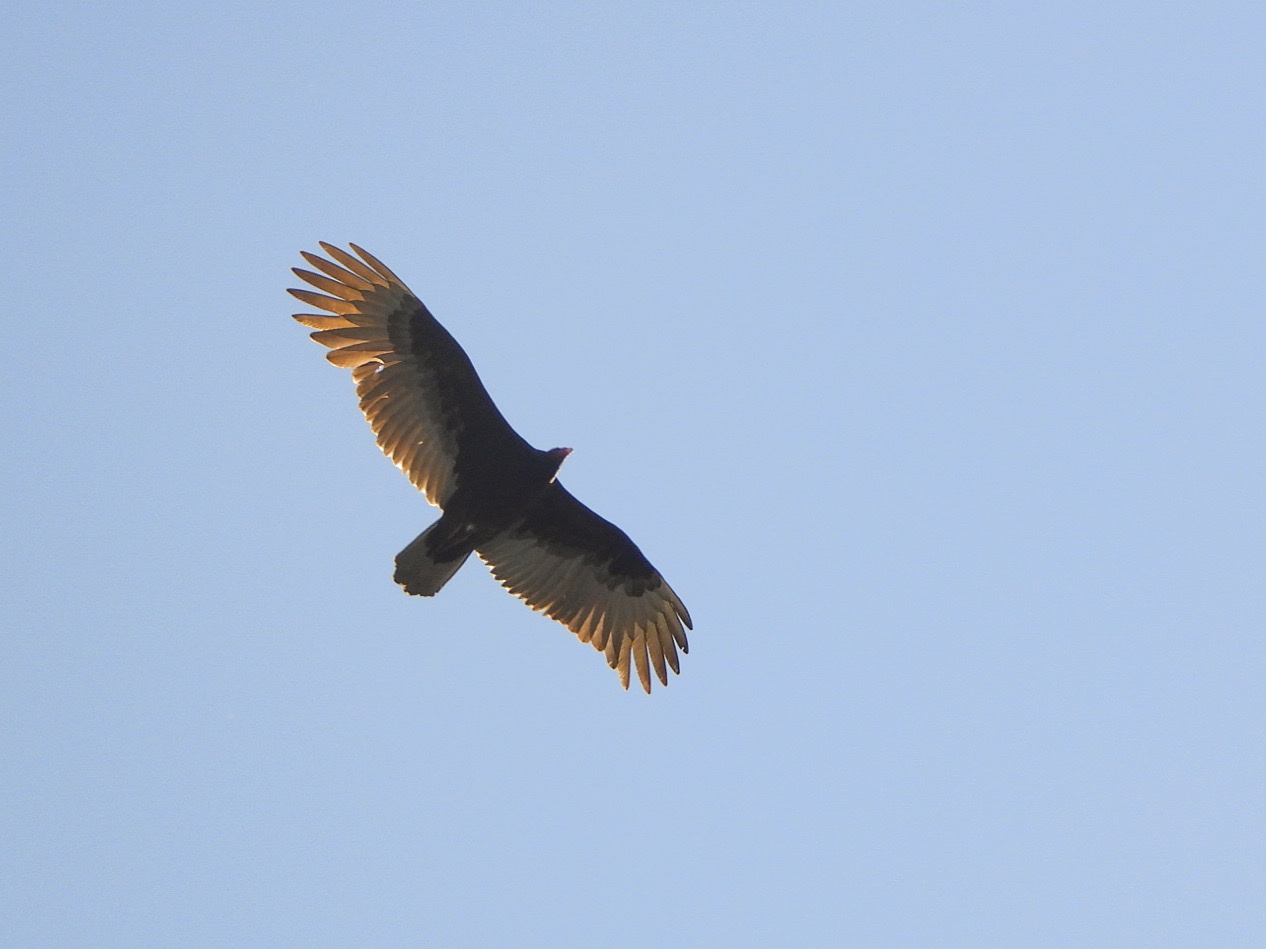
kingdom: Animalia
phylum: Chordata
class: Aves
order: Accipitriformes
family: Cathartidae
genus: Cathartes
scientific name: Cathartes aura
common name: Turkey vulture
